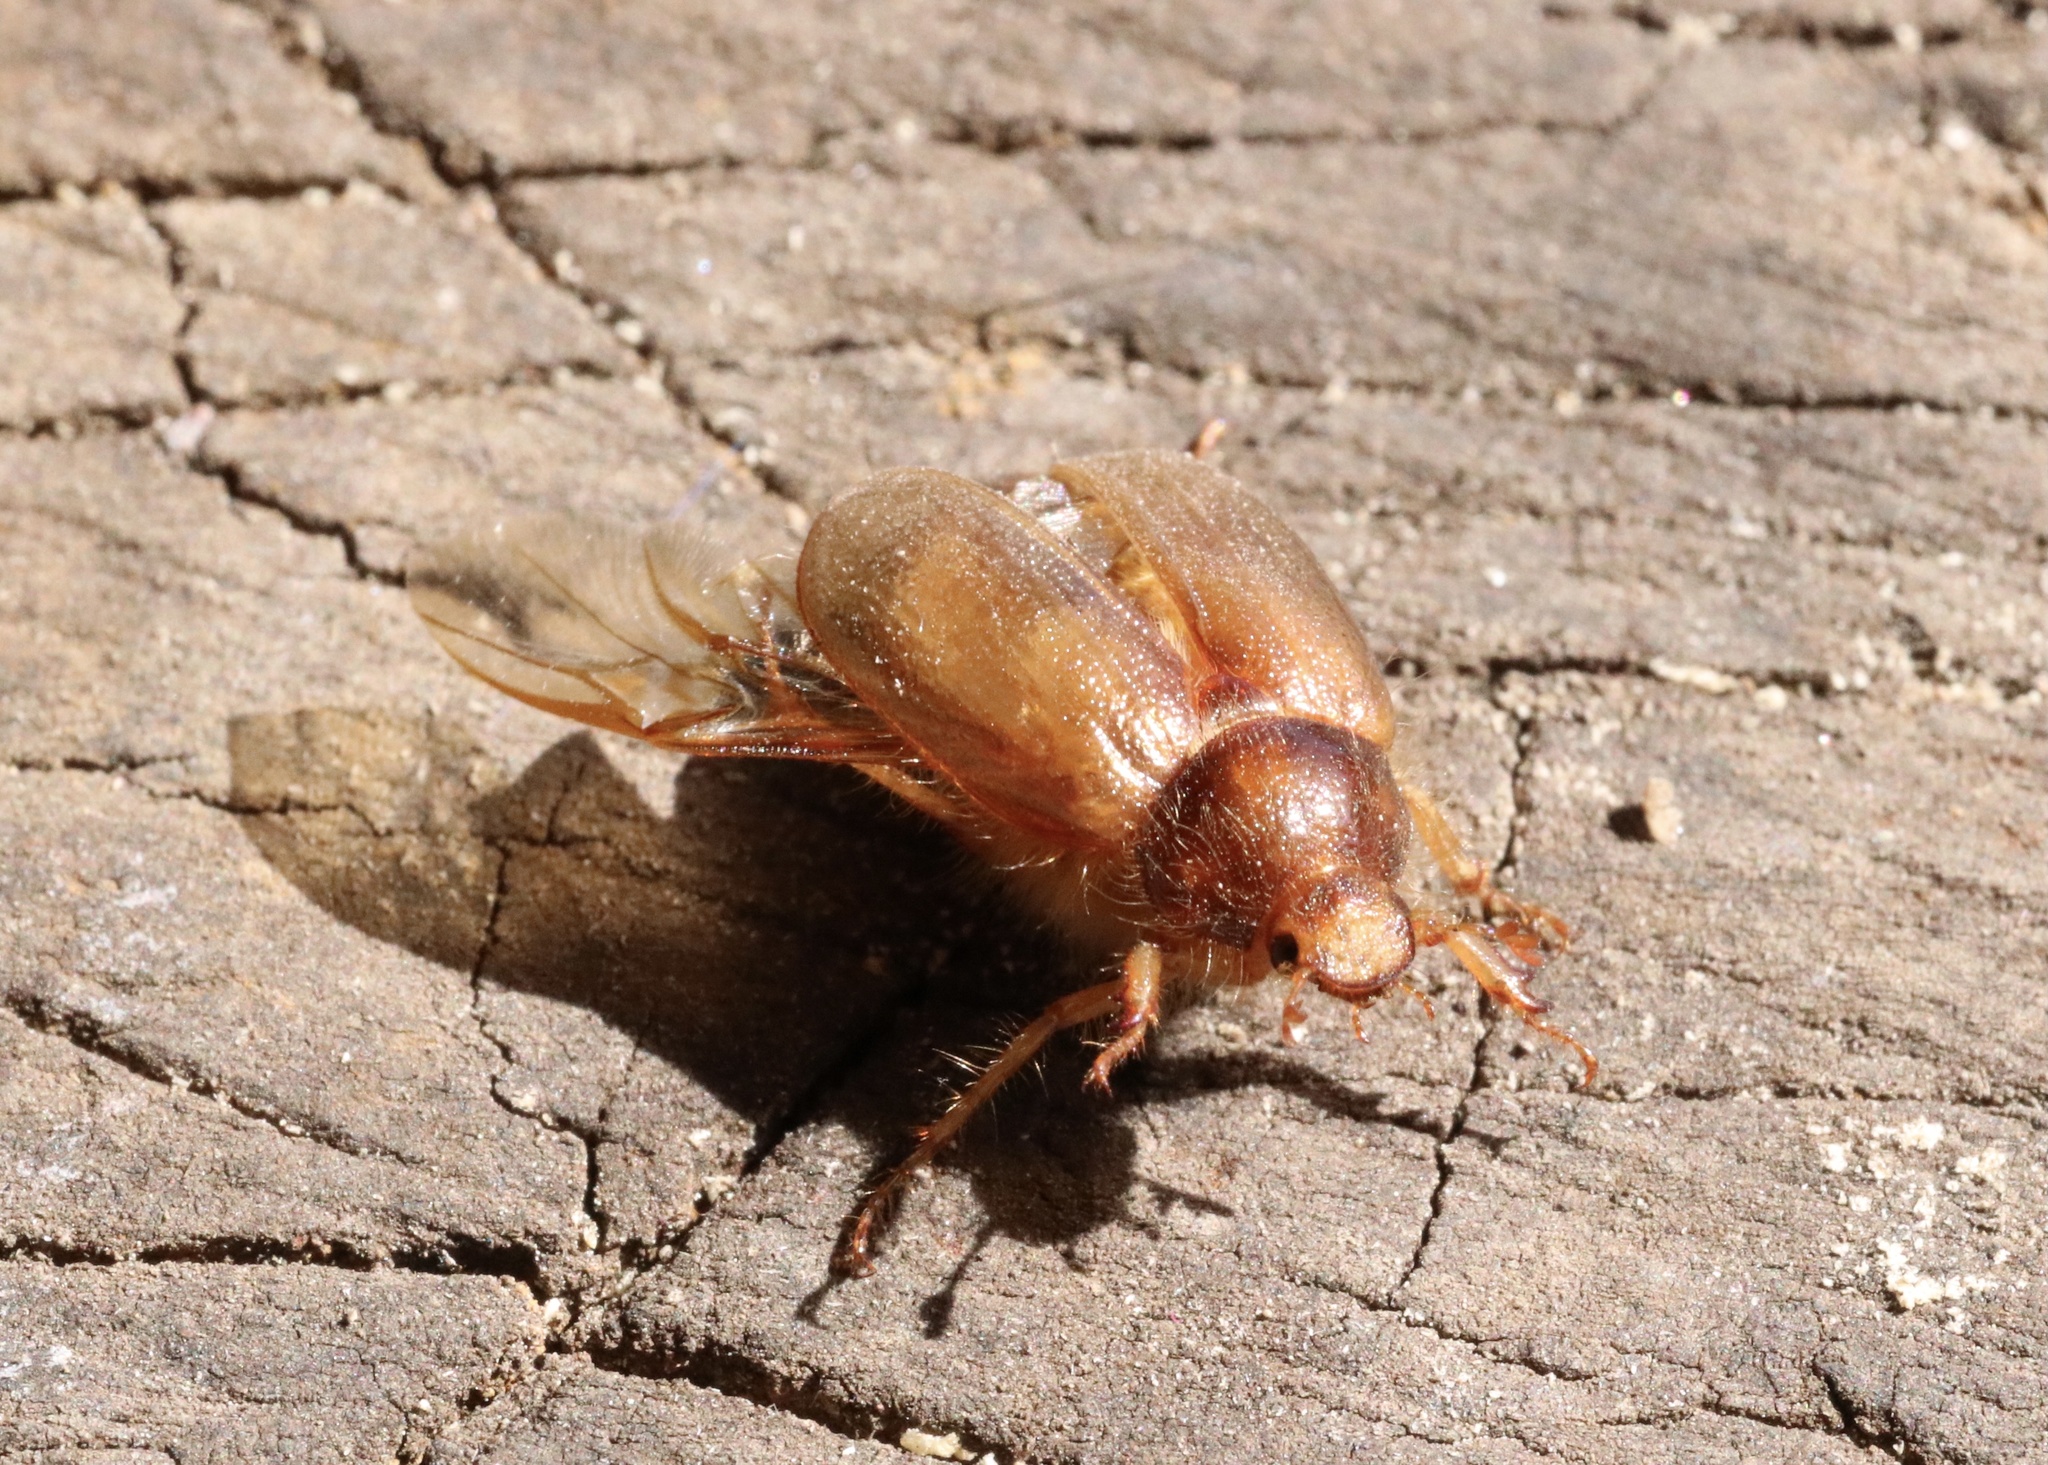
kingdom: Animalia
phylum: Arthropoda
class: Insecta
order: Coleoptera
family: Scarabaeidae
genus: Phytholaema
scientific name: Phytholaema herrmanni
